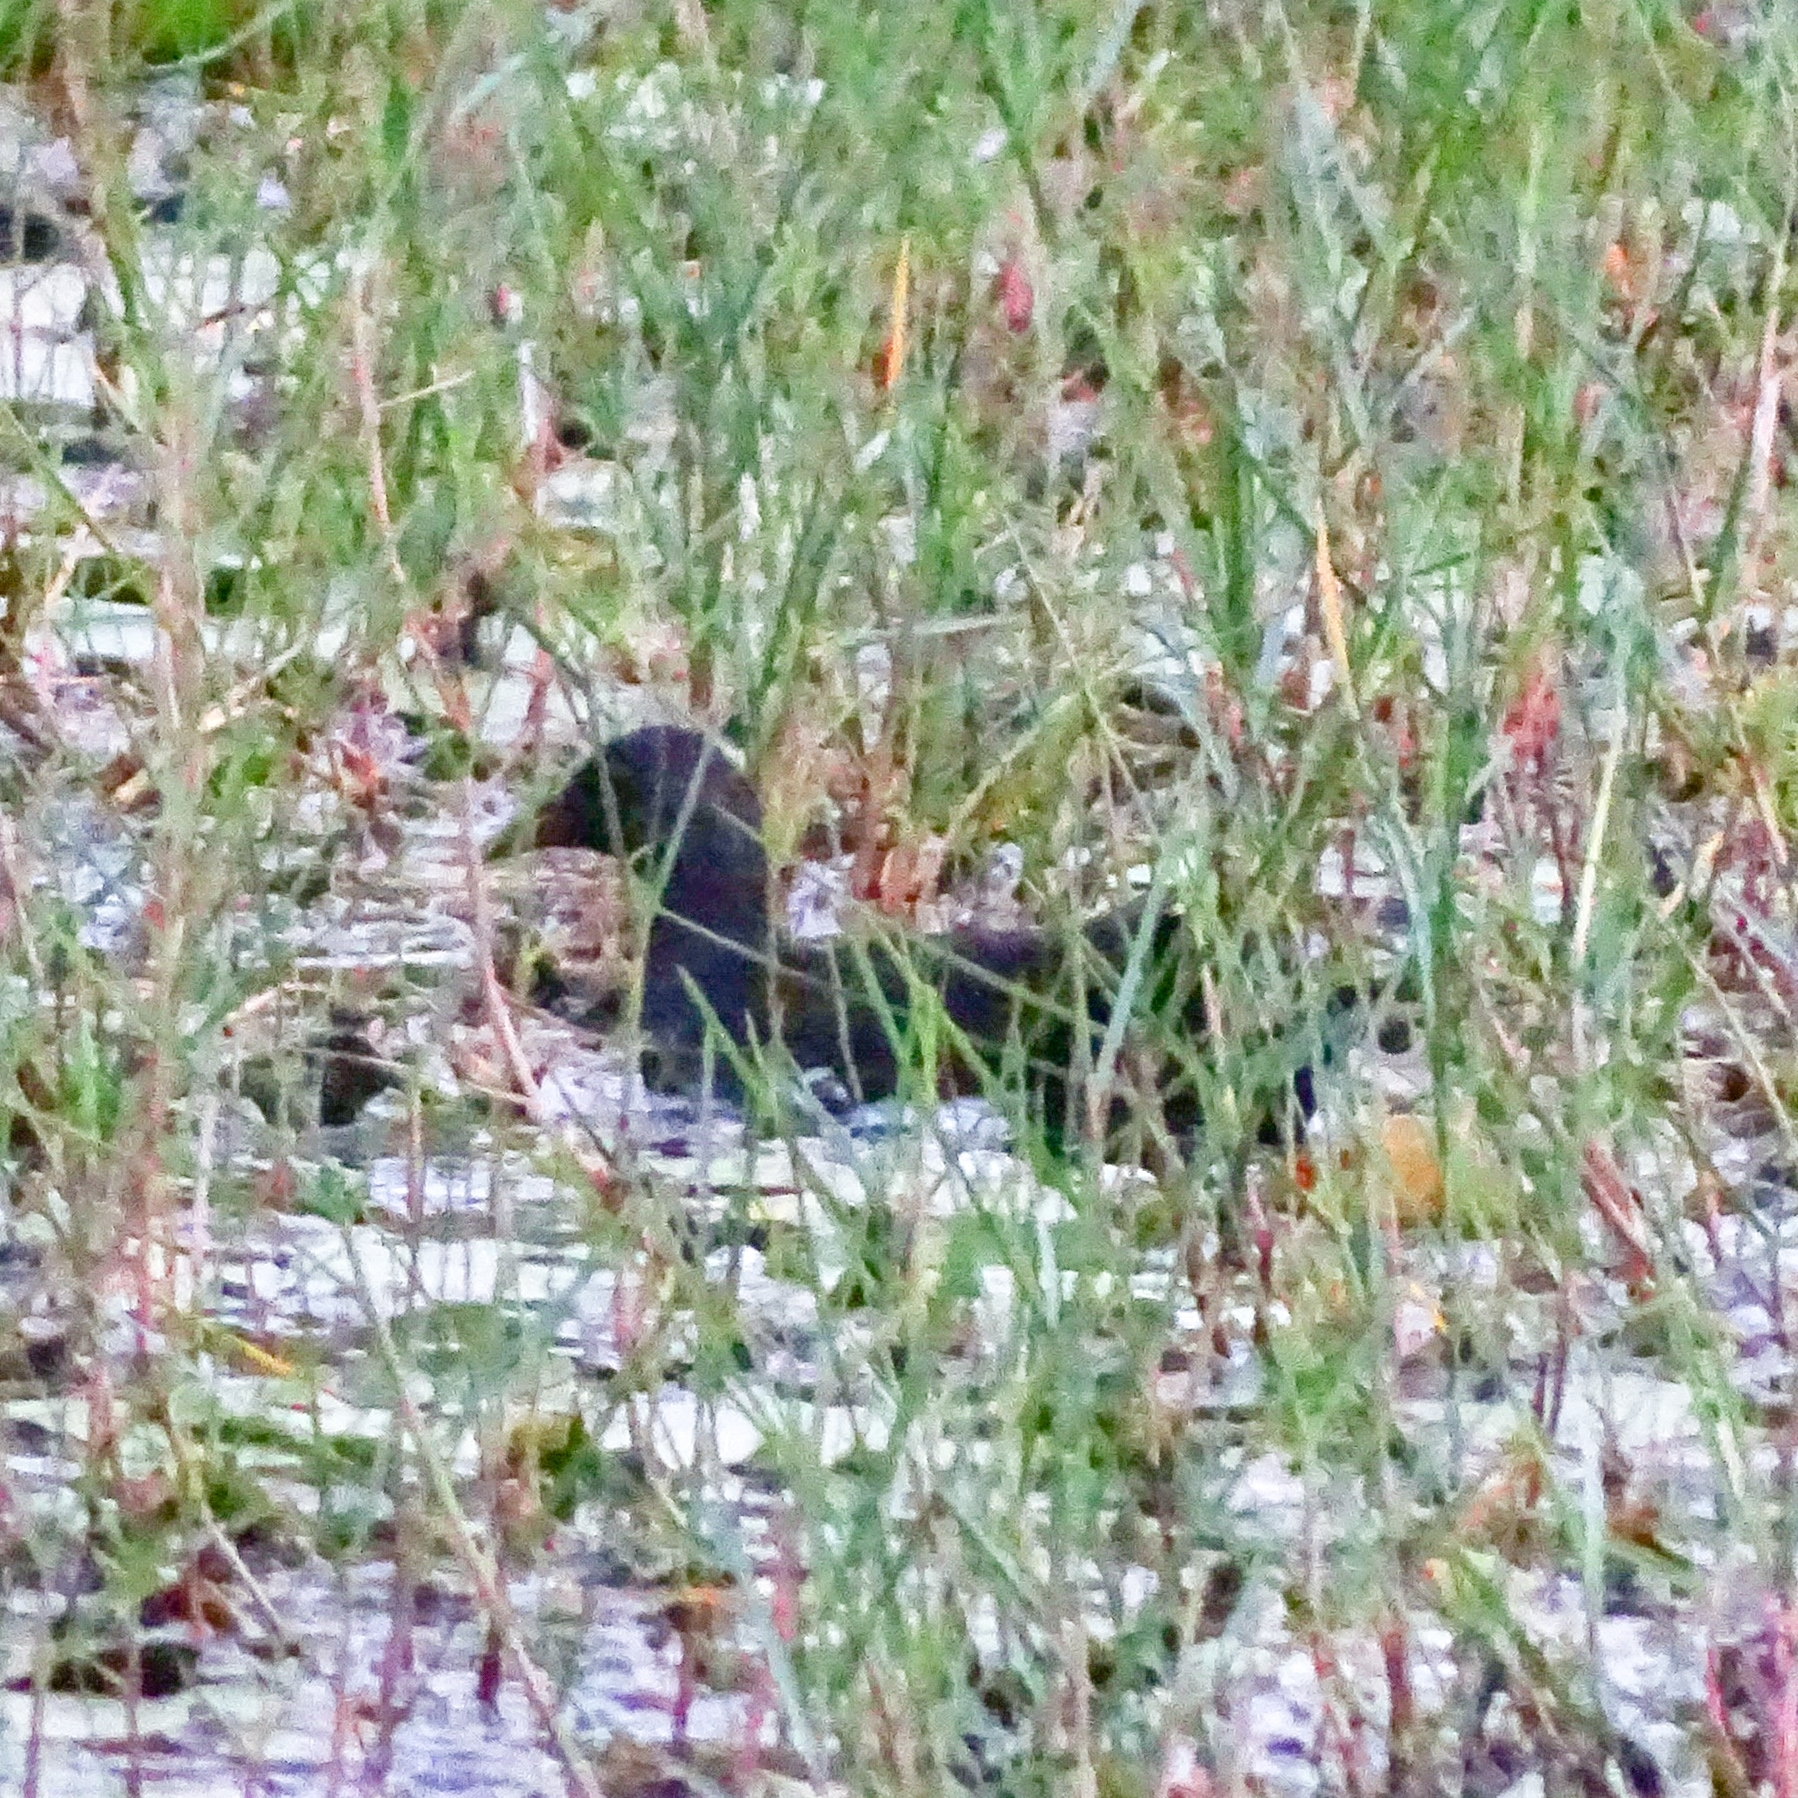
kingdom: Animalia
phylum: Chordata
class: Aves
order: Gruiformes
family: Rallidae
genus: Gallinula
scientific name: Gallinula chloropus
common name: Common moorhen
